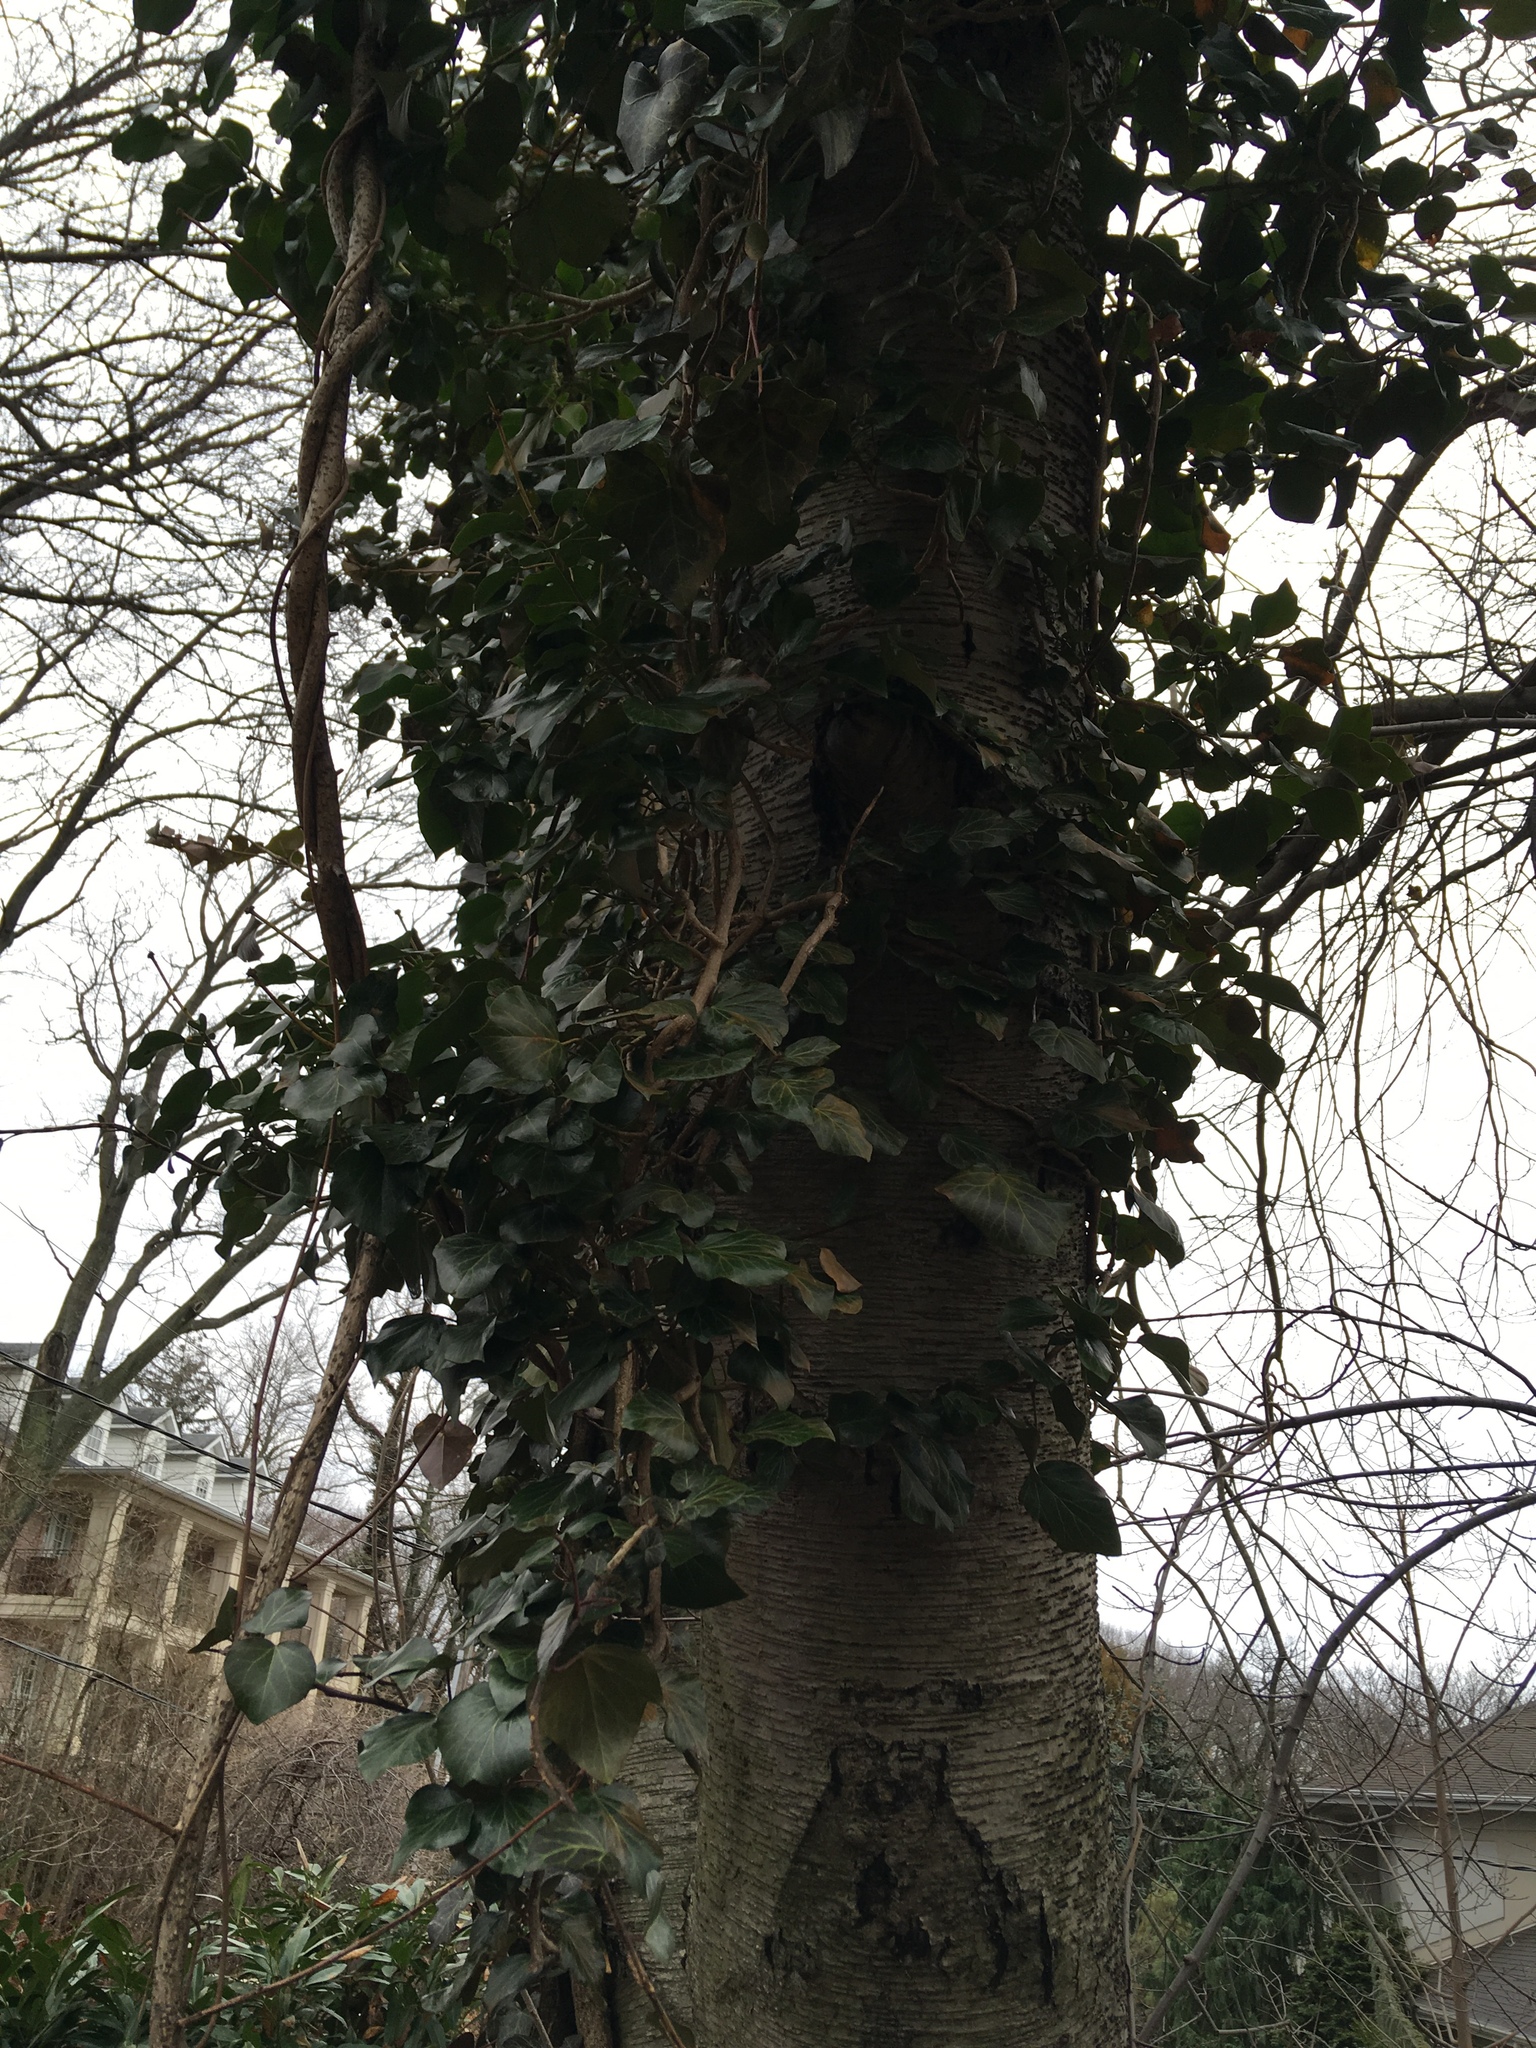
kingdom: Plantae
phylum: Tracheophyta
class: Magnoliopsida
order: Apiales
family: Araliaceae
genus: Hedera
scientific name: Hedera helix
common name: Ivy
